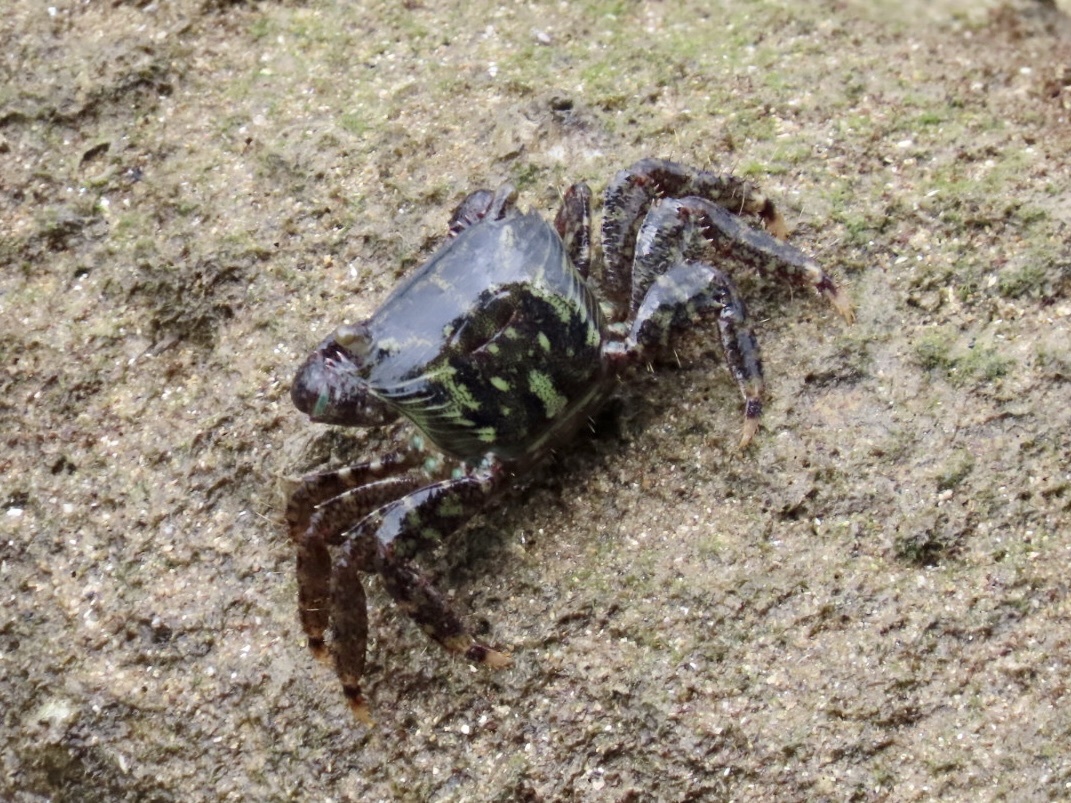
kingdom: Animalia
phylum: Arthropoda
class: Malacostraca
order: Decapoda
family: Grapsidae
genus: Metopograpsus
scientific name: Metopograpsus quadridentatus
